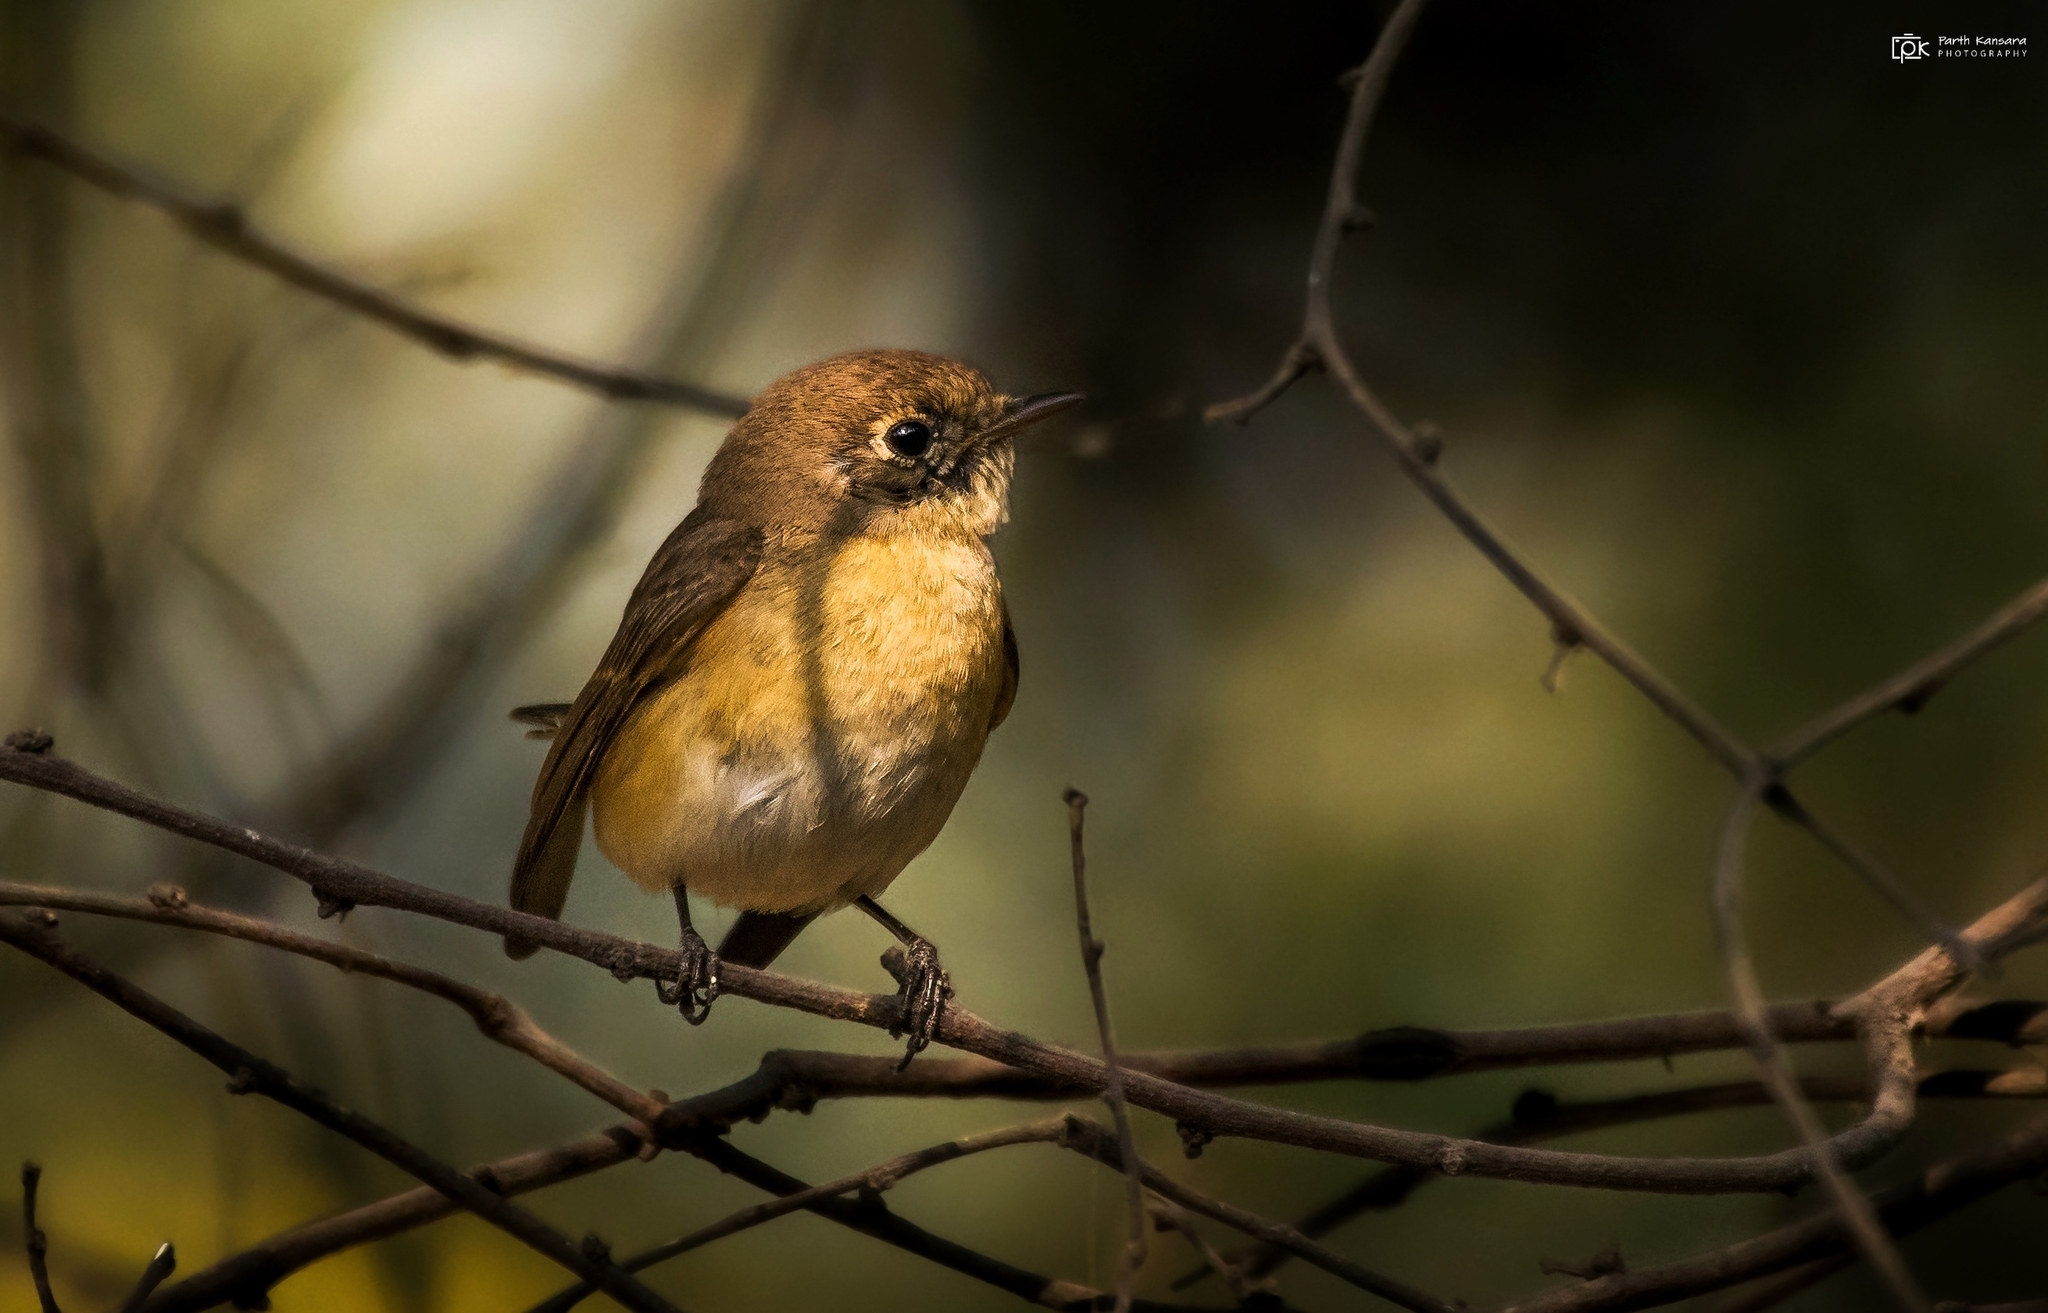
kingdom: Animalia
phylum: Chordata
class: Aves
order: Passeriformes
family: Muscicapidae
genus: Ficedula
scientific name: Ficedula parva
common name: Red-breasted flycatcher
